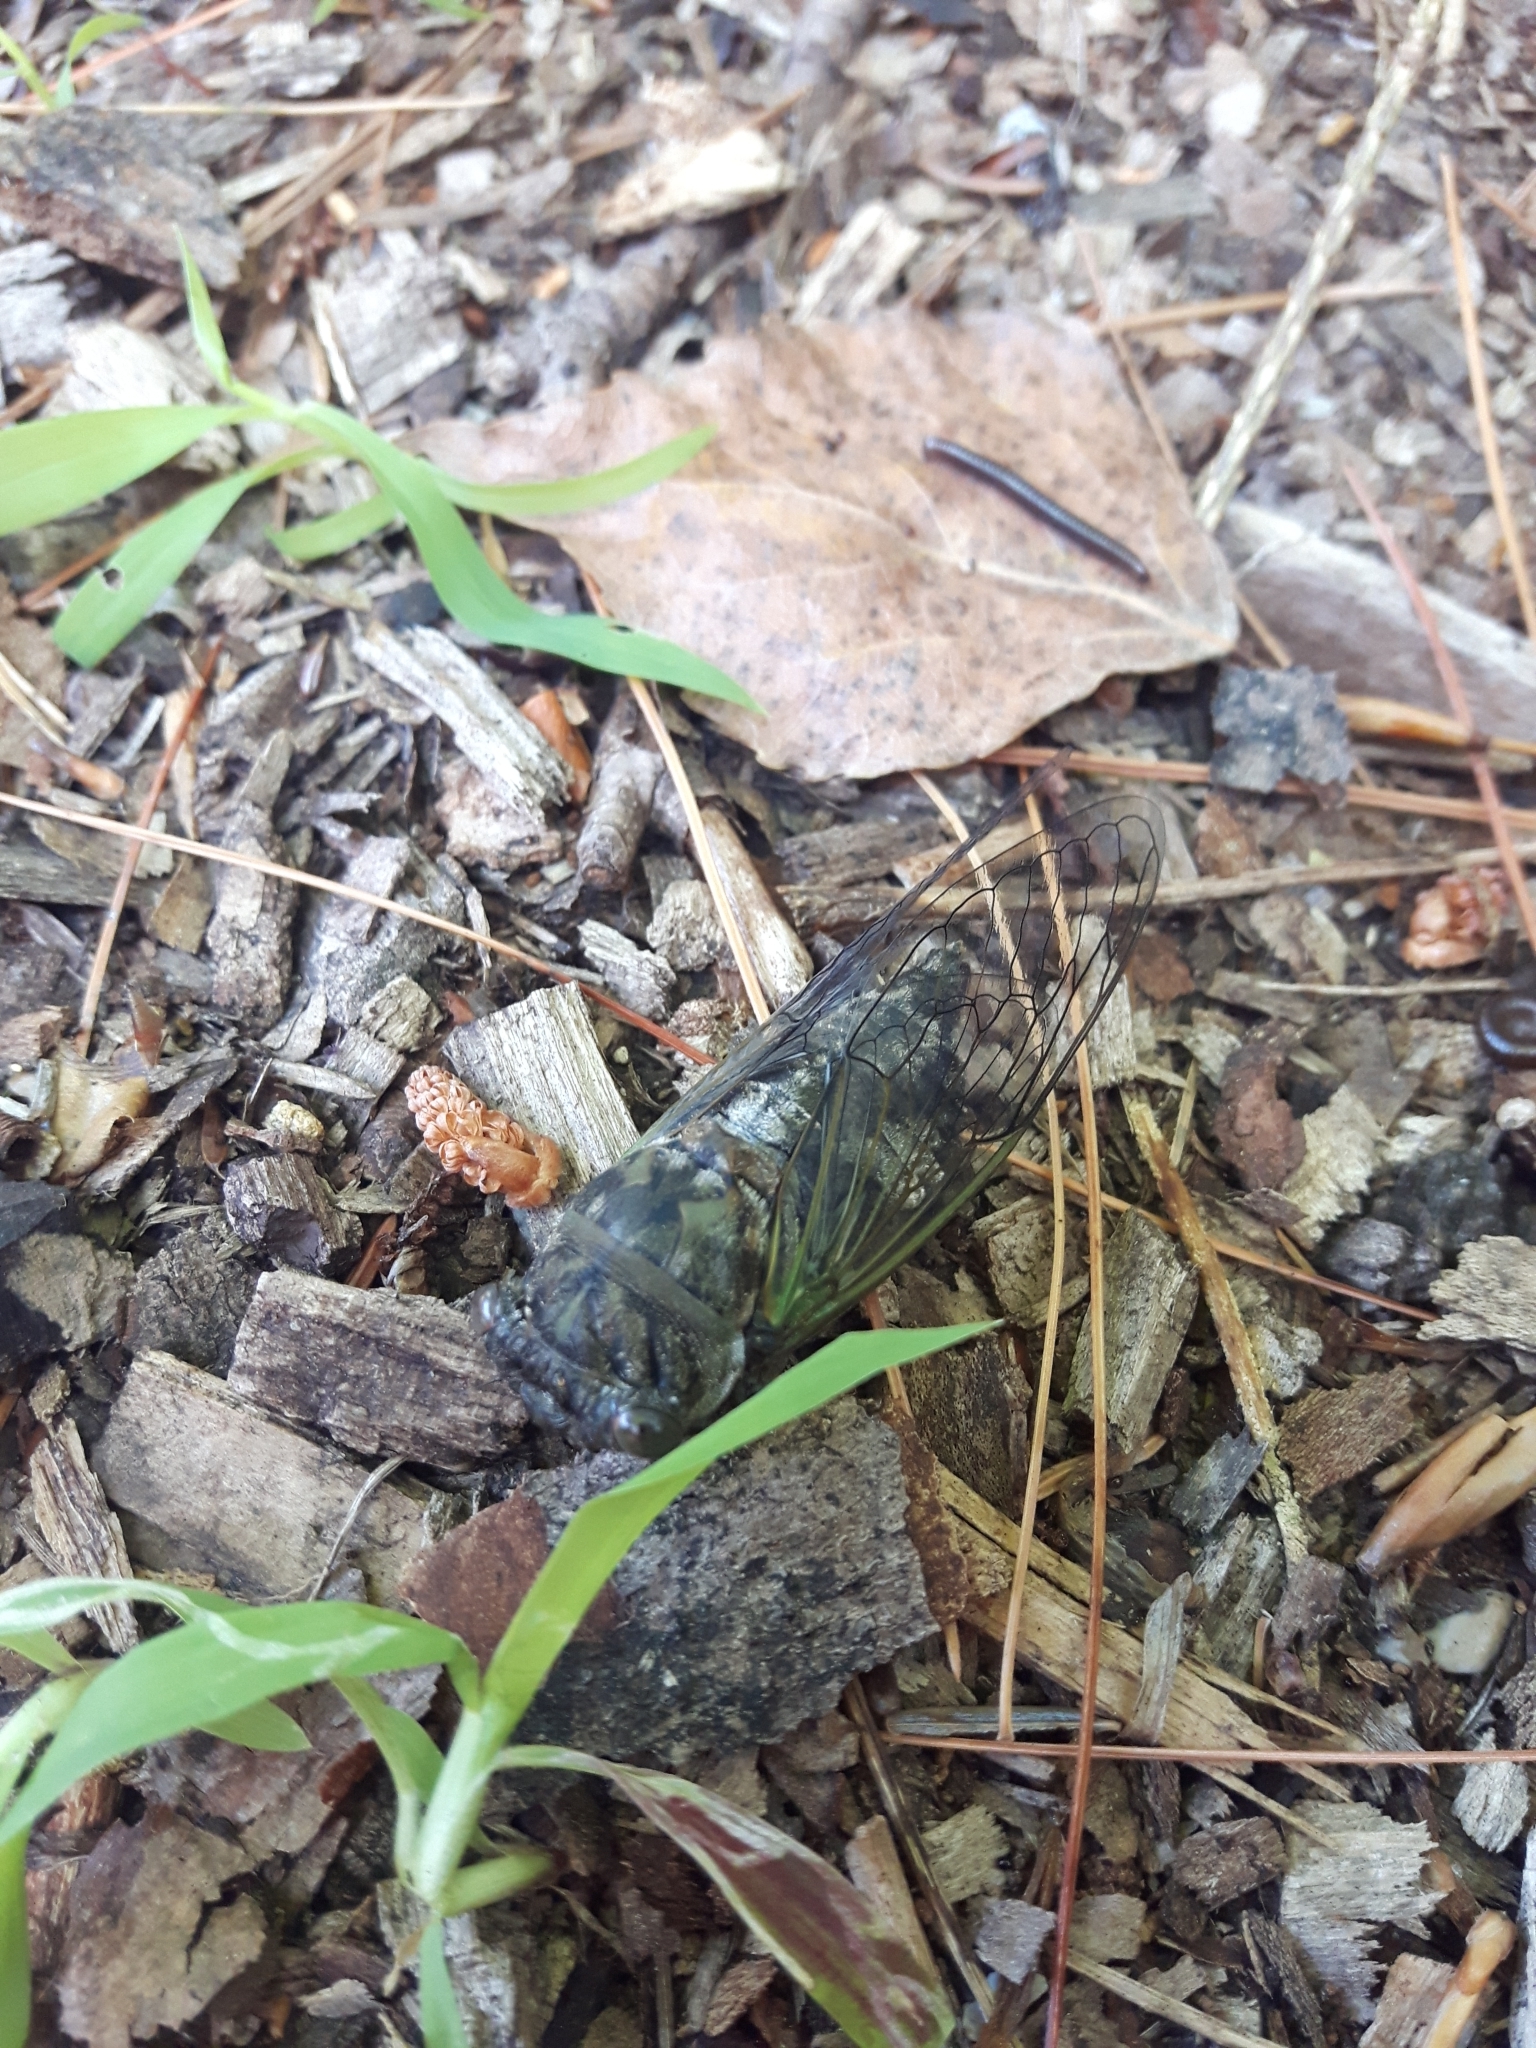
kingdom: Animalia
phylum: Arthropoda
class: Insecta
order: Hemiptera
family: Cicadidae
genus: Neotibicen
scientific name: Neotibicen canicularis
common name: God-day cicada
